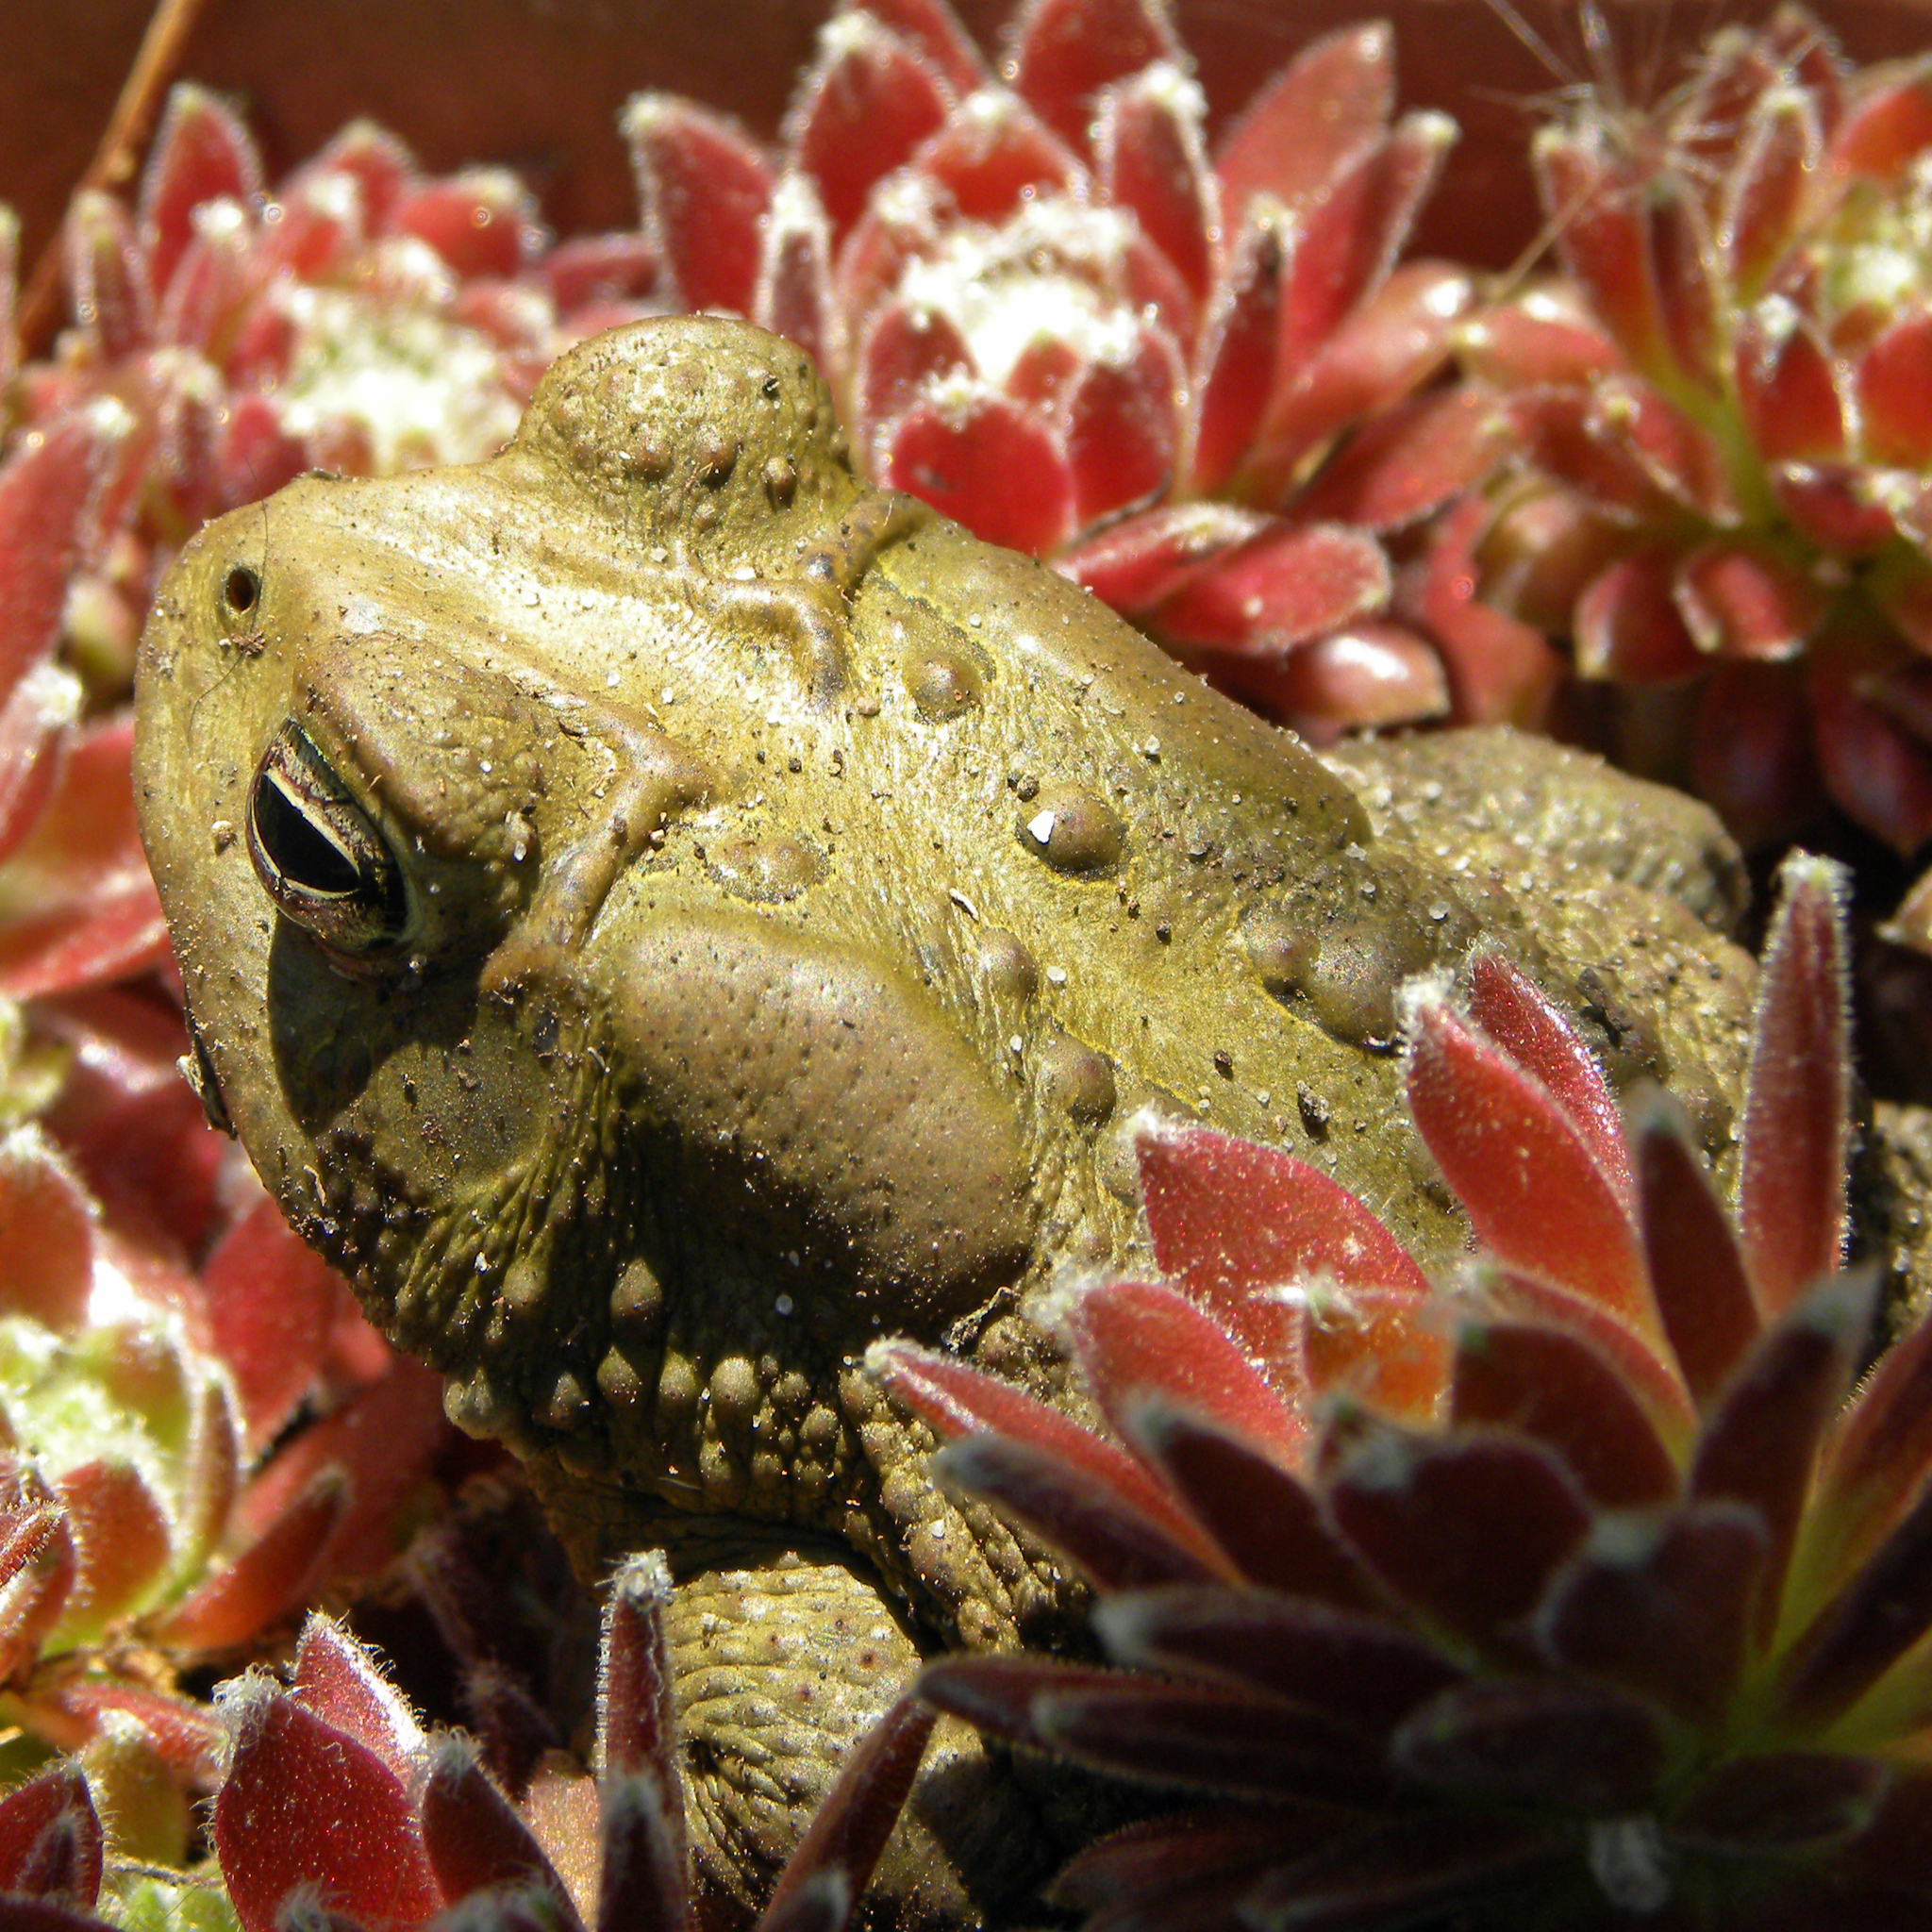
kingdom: Animalia
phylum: Chordata
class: Amphibia
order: Anura
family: Bufonidae
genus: Anaxyrus
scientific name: Anaxyrus americanus
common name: American toad
